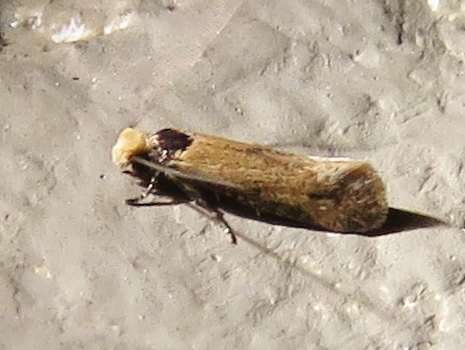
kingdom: Animalia
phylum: Arthropoda
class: Insecta
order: Lepidoptera
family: Meessiidae
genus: Homostinea
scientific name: Homostinea curviliniella
